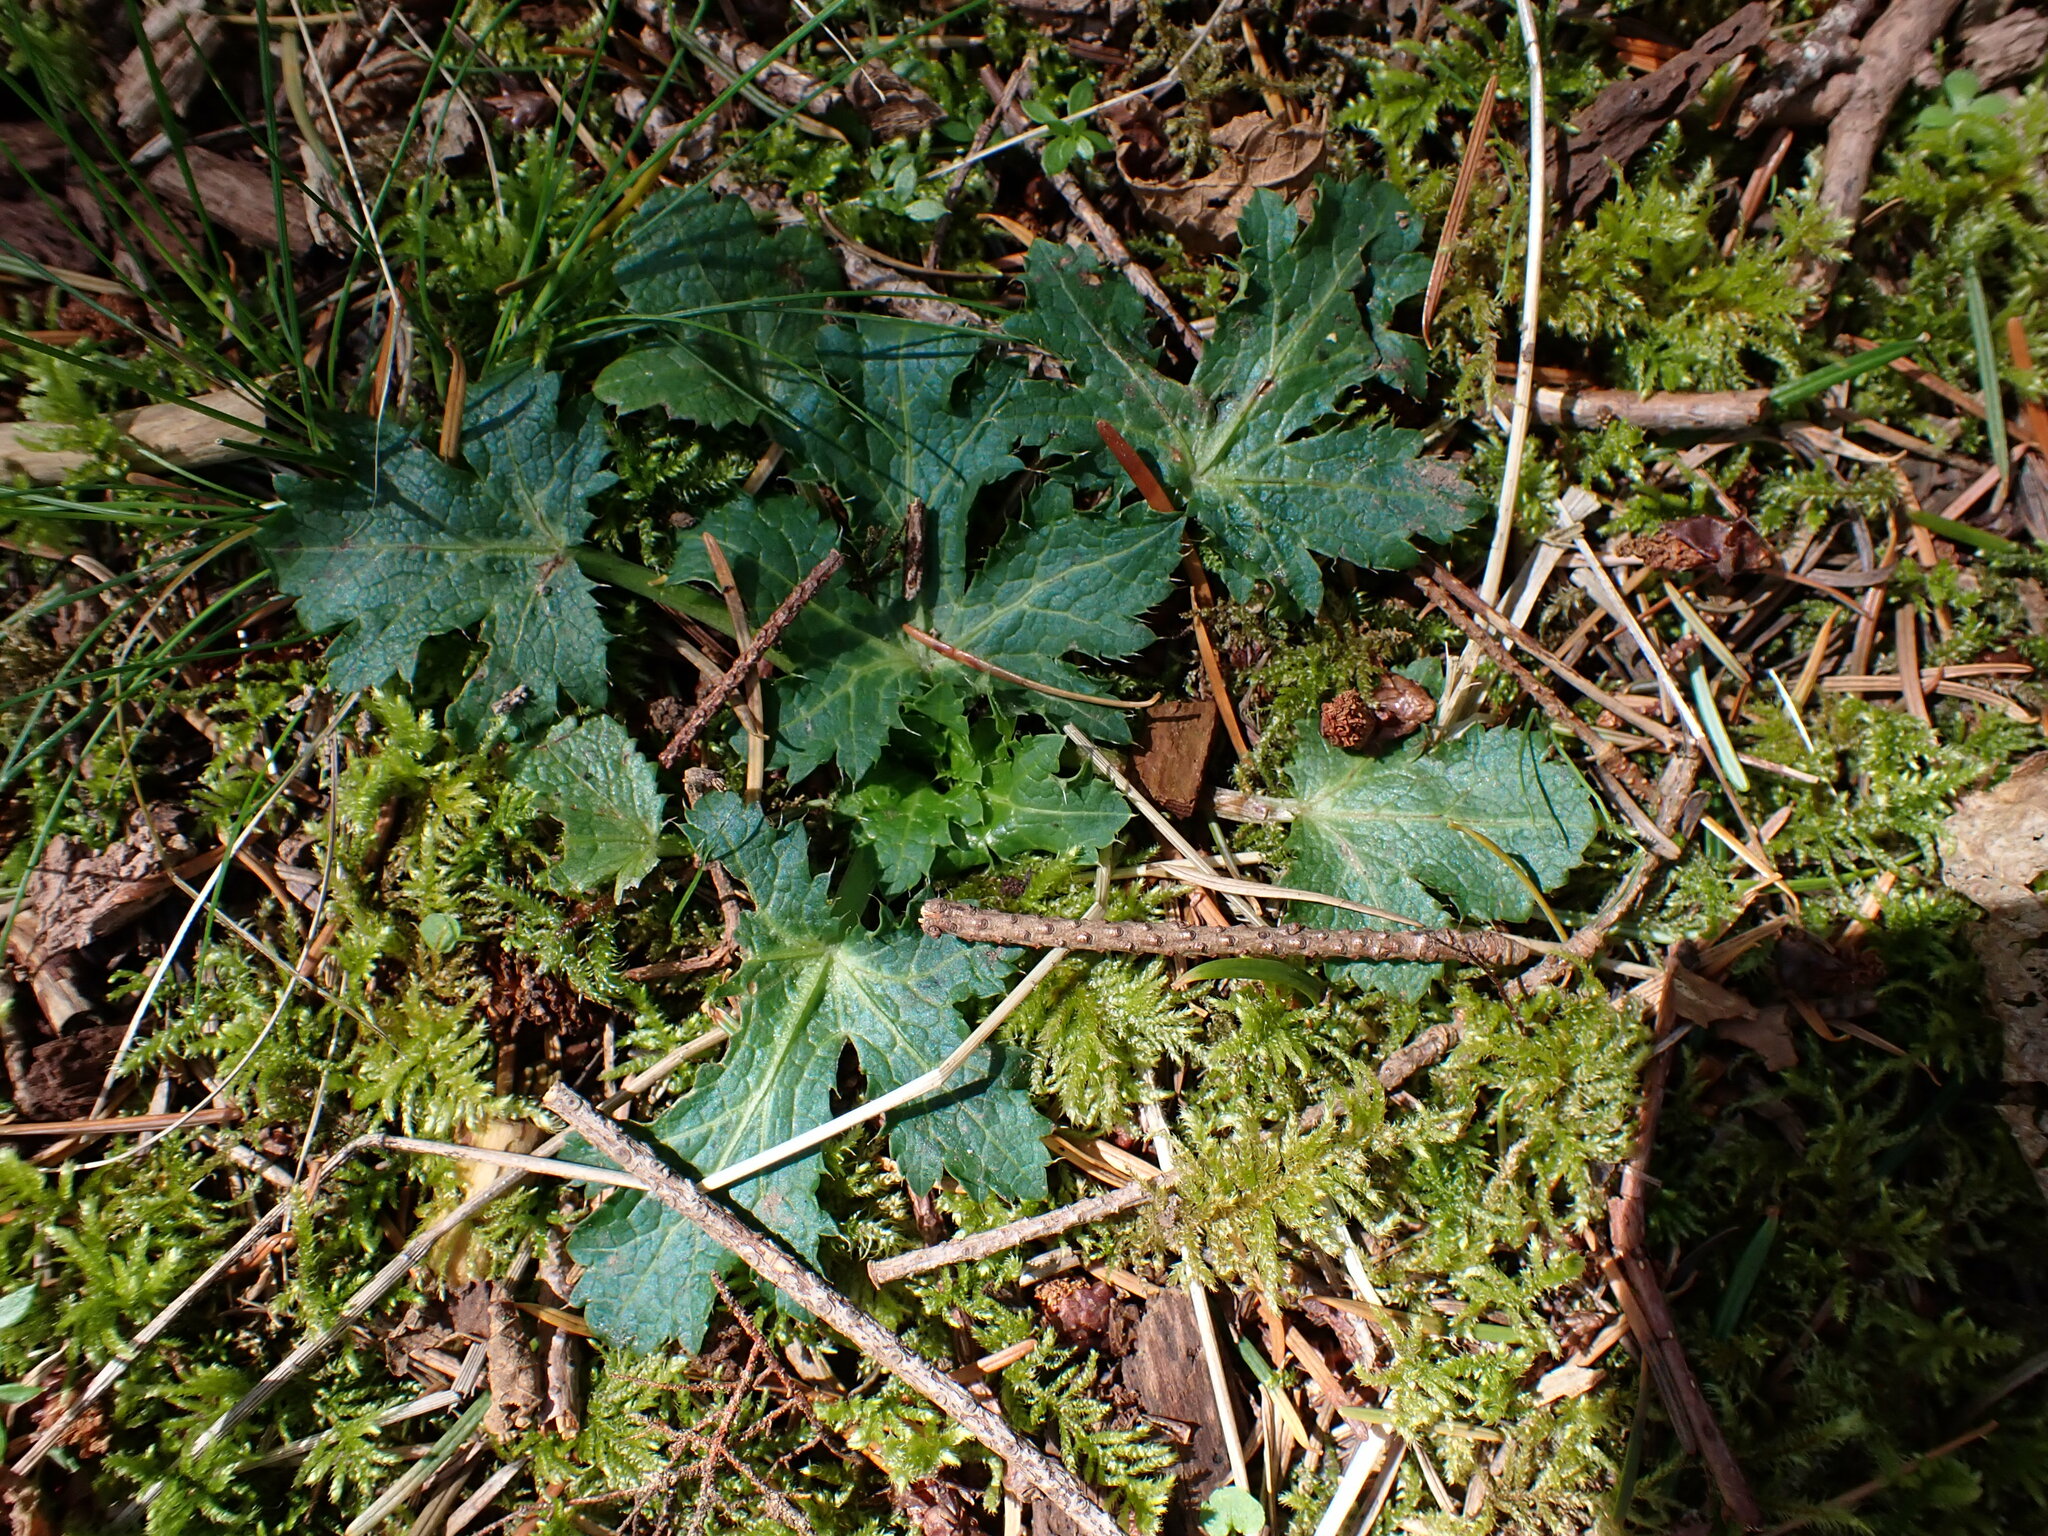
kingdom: Plantae
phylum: Tracheophyta
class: Magnoliopsida
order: Apiales
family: Apiaceae
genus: Sanicula
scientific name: Sanicula crassicaulis
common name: Western snakeroot
